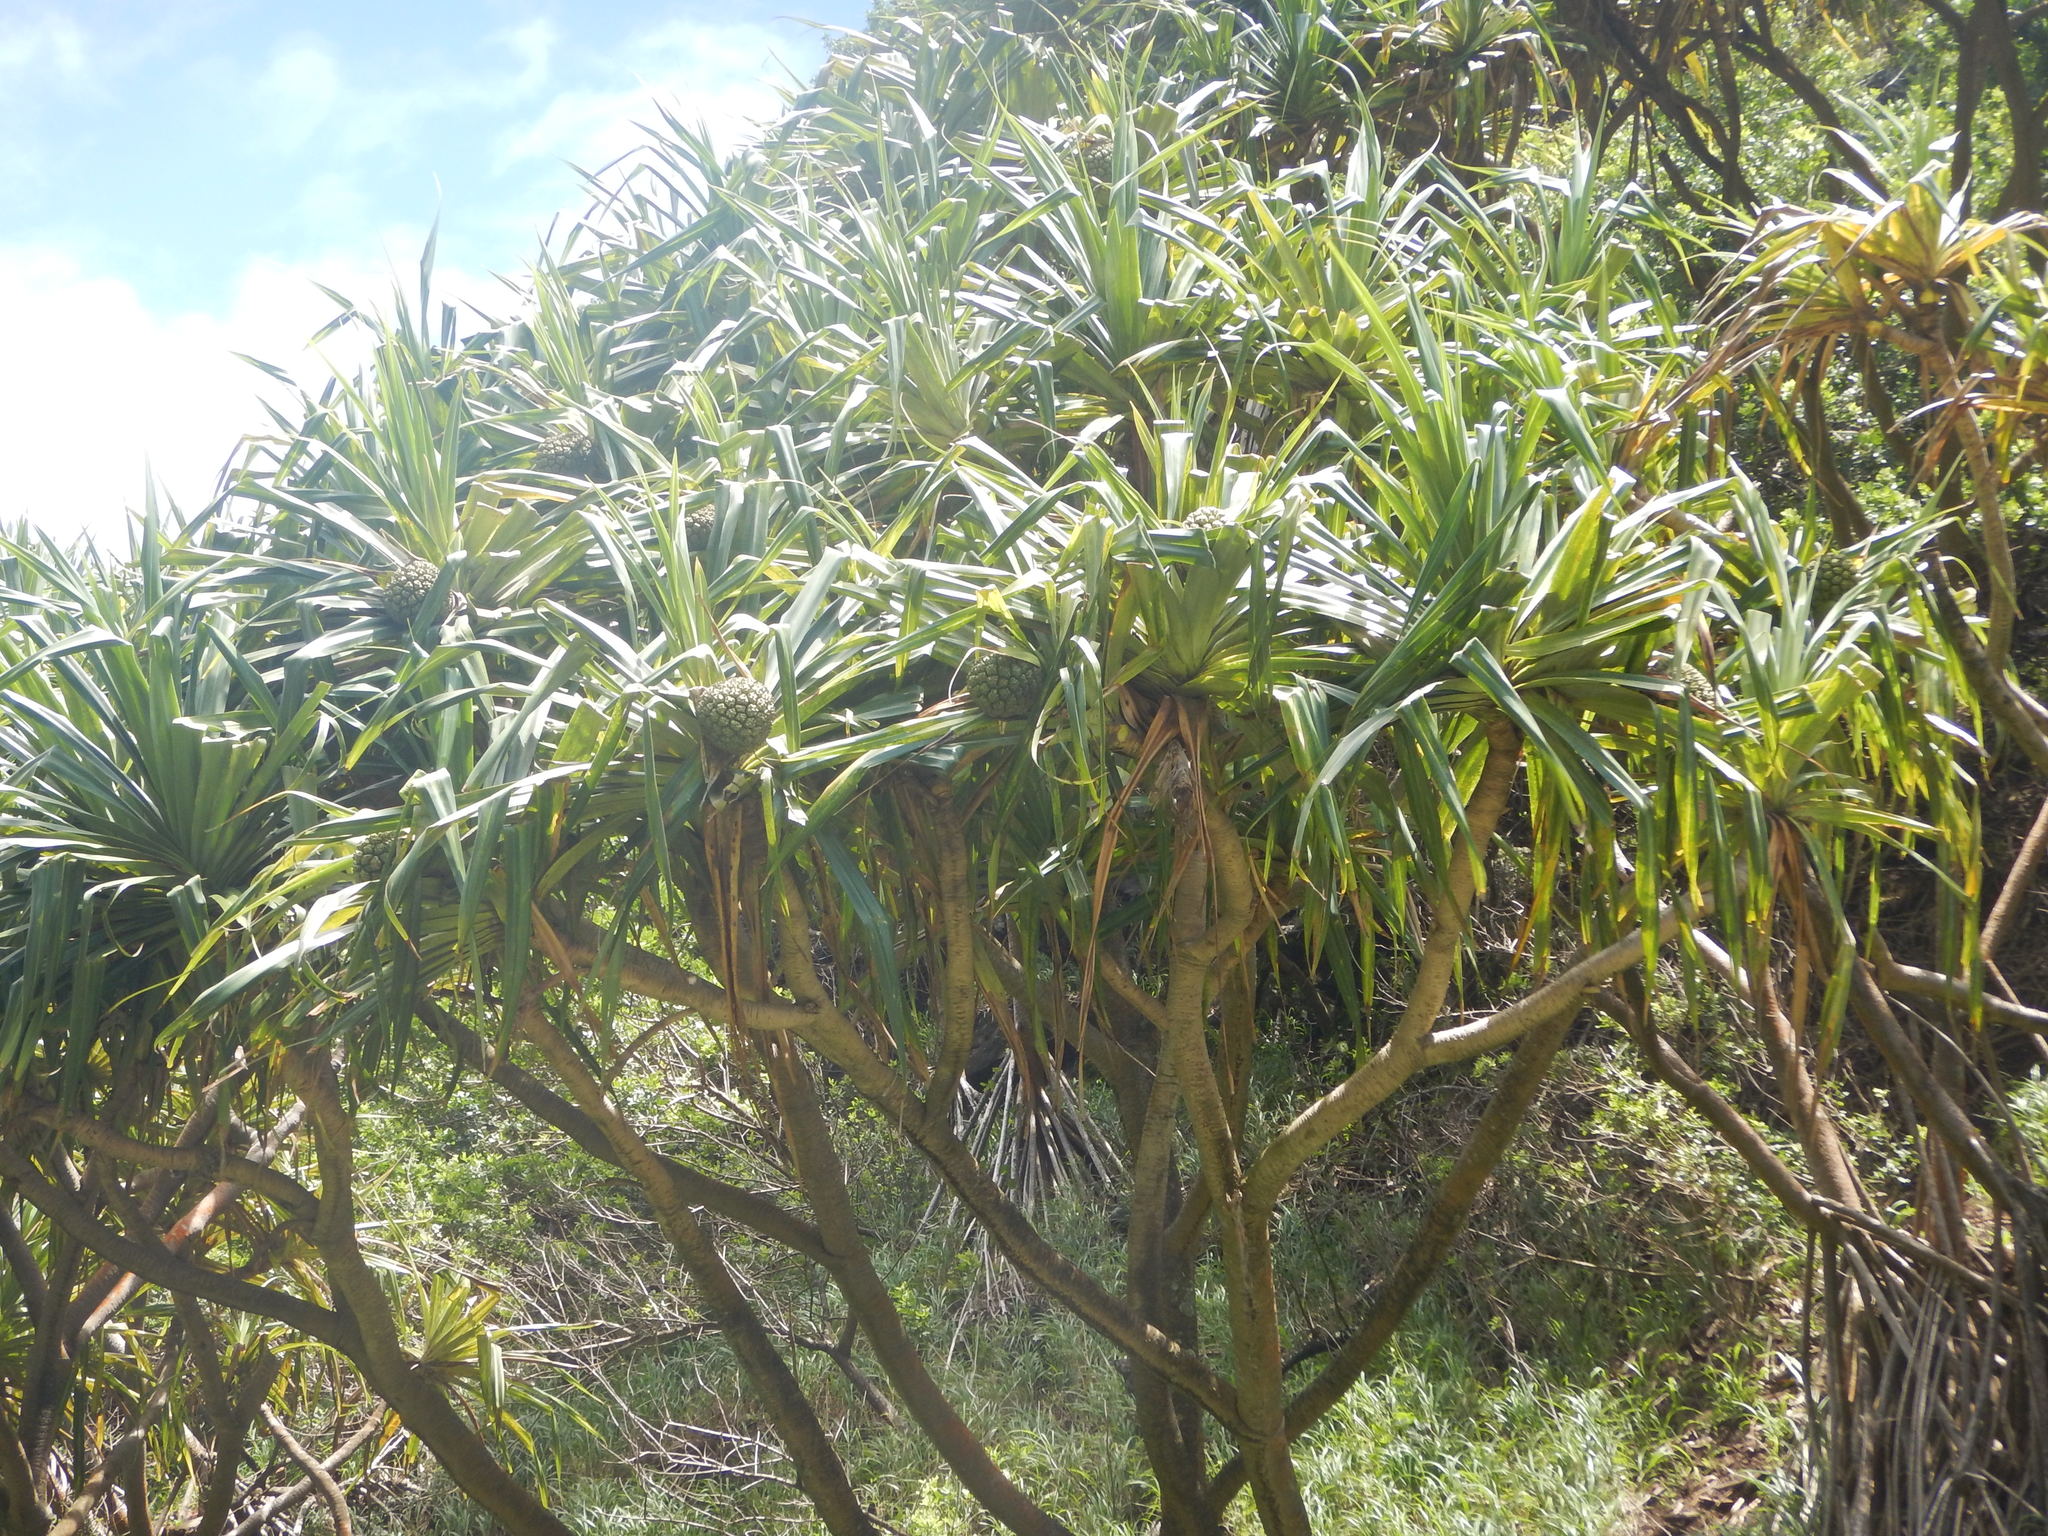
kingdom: Plantae
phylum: Tracheophyta
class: Liliopsida
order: Pandanales
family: Pandanaceae
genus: Pandanus
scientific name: Pandanus tectorius
